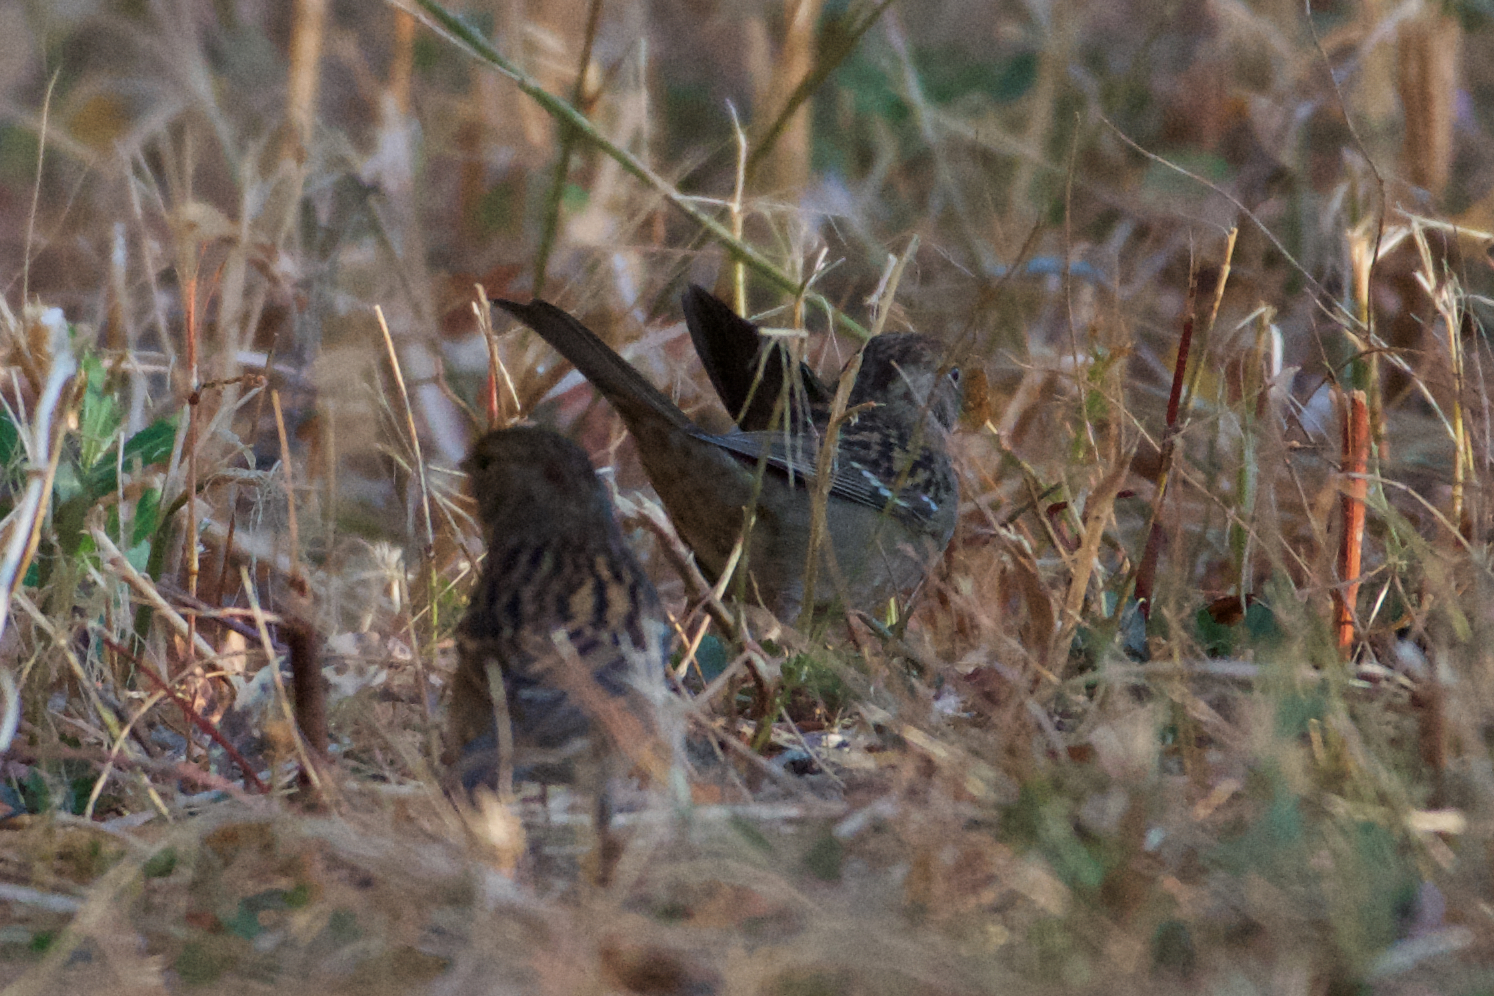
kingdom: Animalia
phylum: Chordata
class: Aves
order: Passeriformes
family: Passerellidae
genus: Zonotrichia
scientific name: Zonotrichia atricapilla
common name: Golden-crowned sparrow
